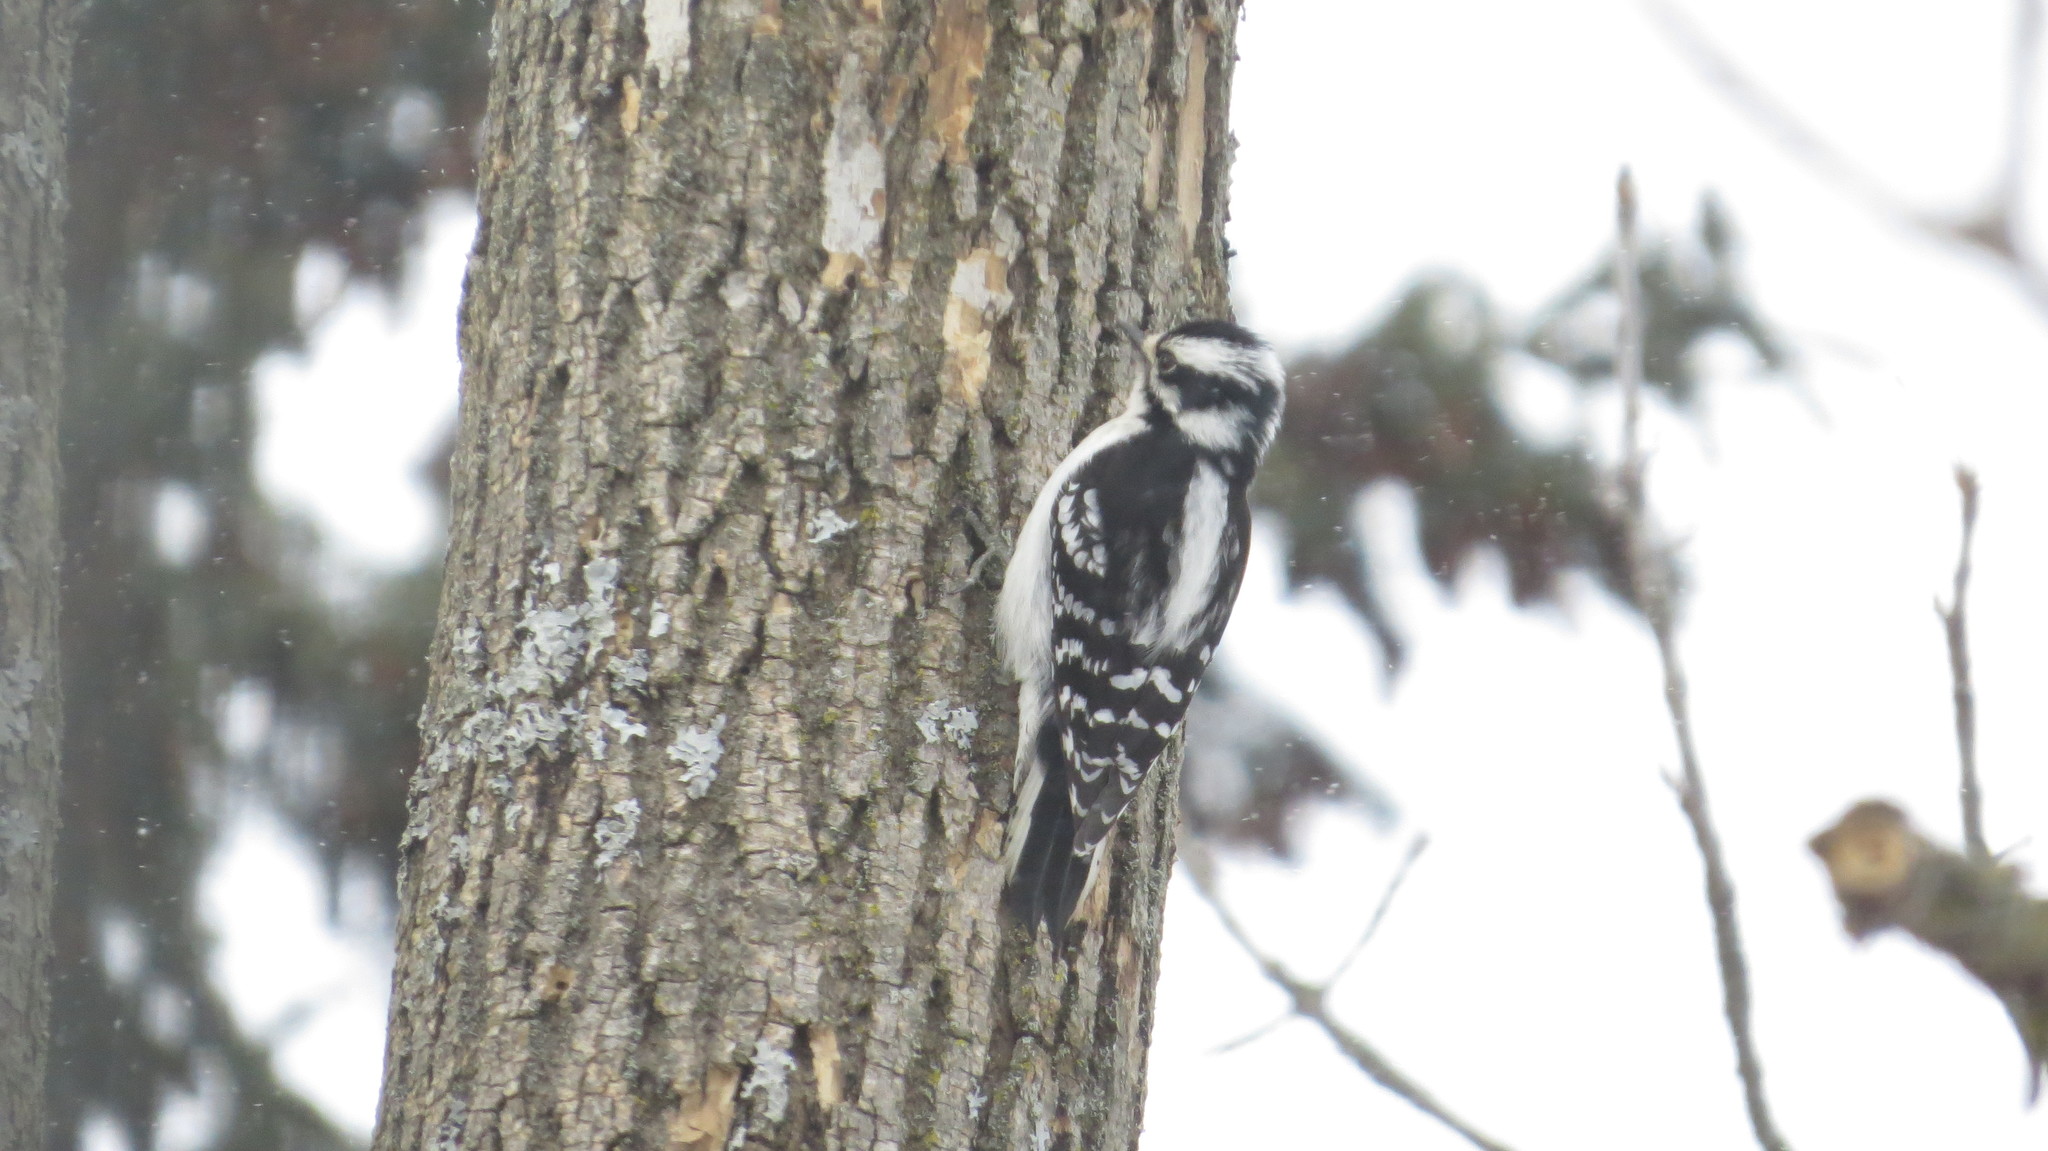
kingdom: Animalia
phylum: Chordata
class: Aves
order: Piciformes
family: Picidae
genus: Dryobates
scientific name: Dryobates pubescens
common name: Downy woodpecker
